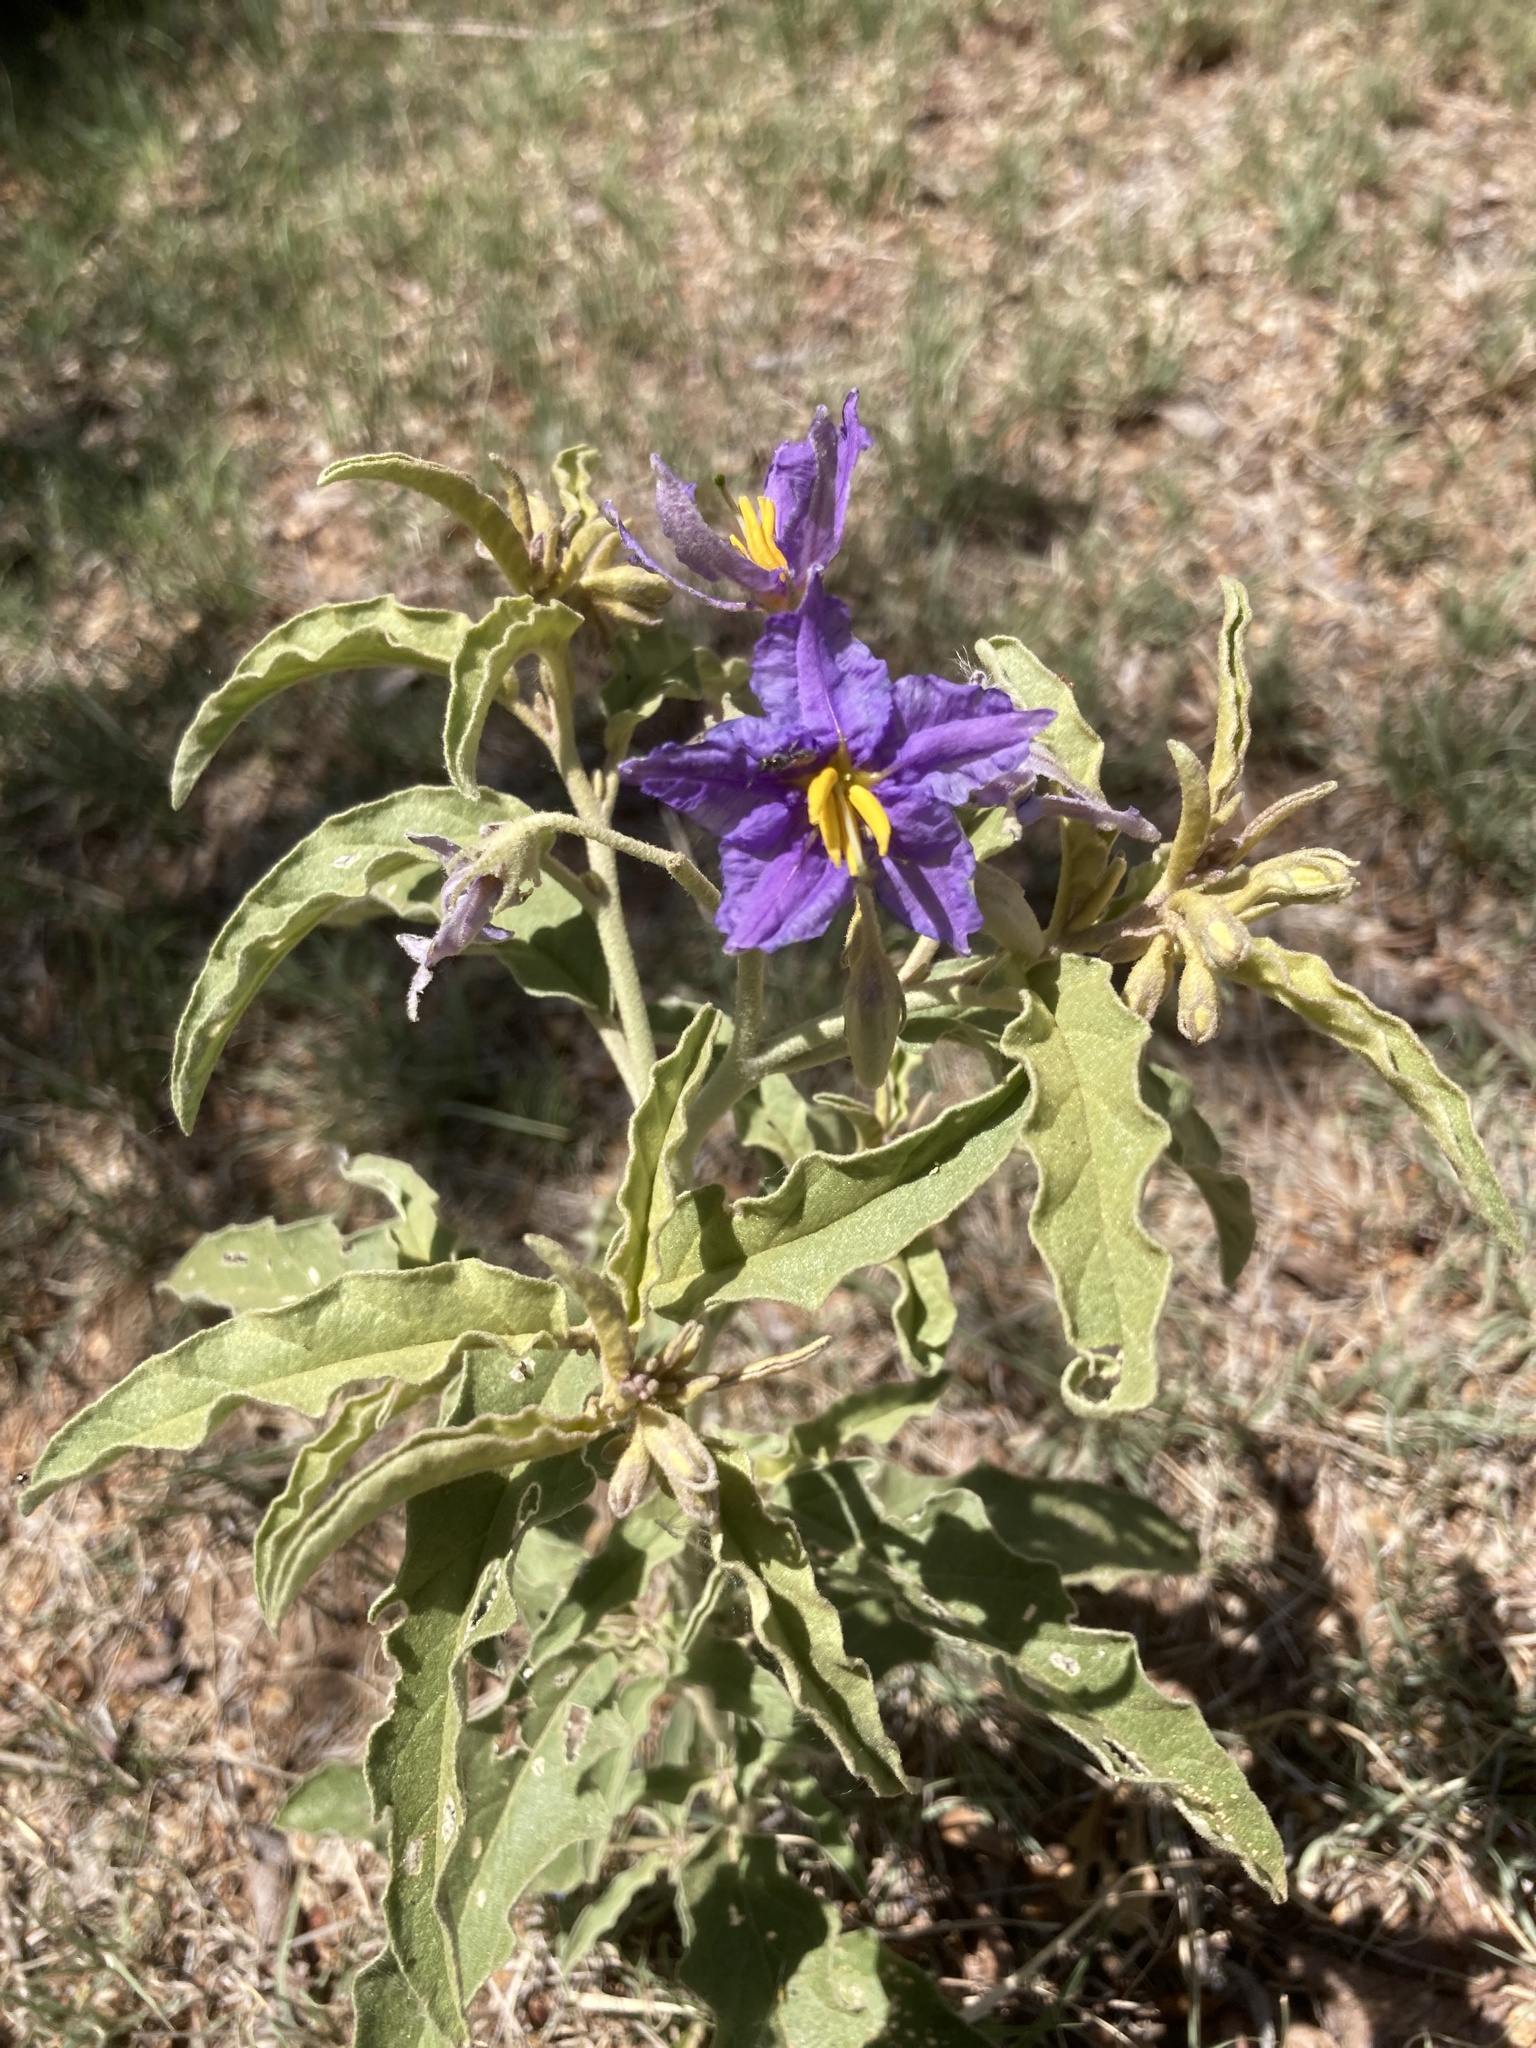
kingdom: Plantae
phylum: Tracheophyta
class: Magnoliopsida
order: Solanales
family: Solanaceae
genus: Solanum
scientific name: Solanum elaeagnifolium
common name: Silverleaf nightshade
